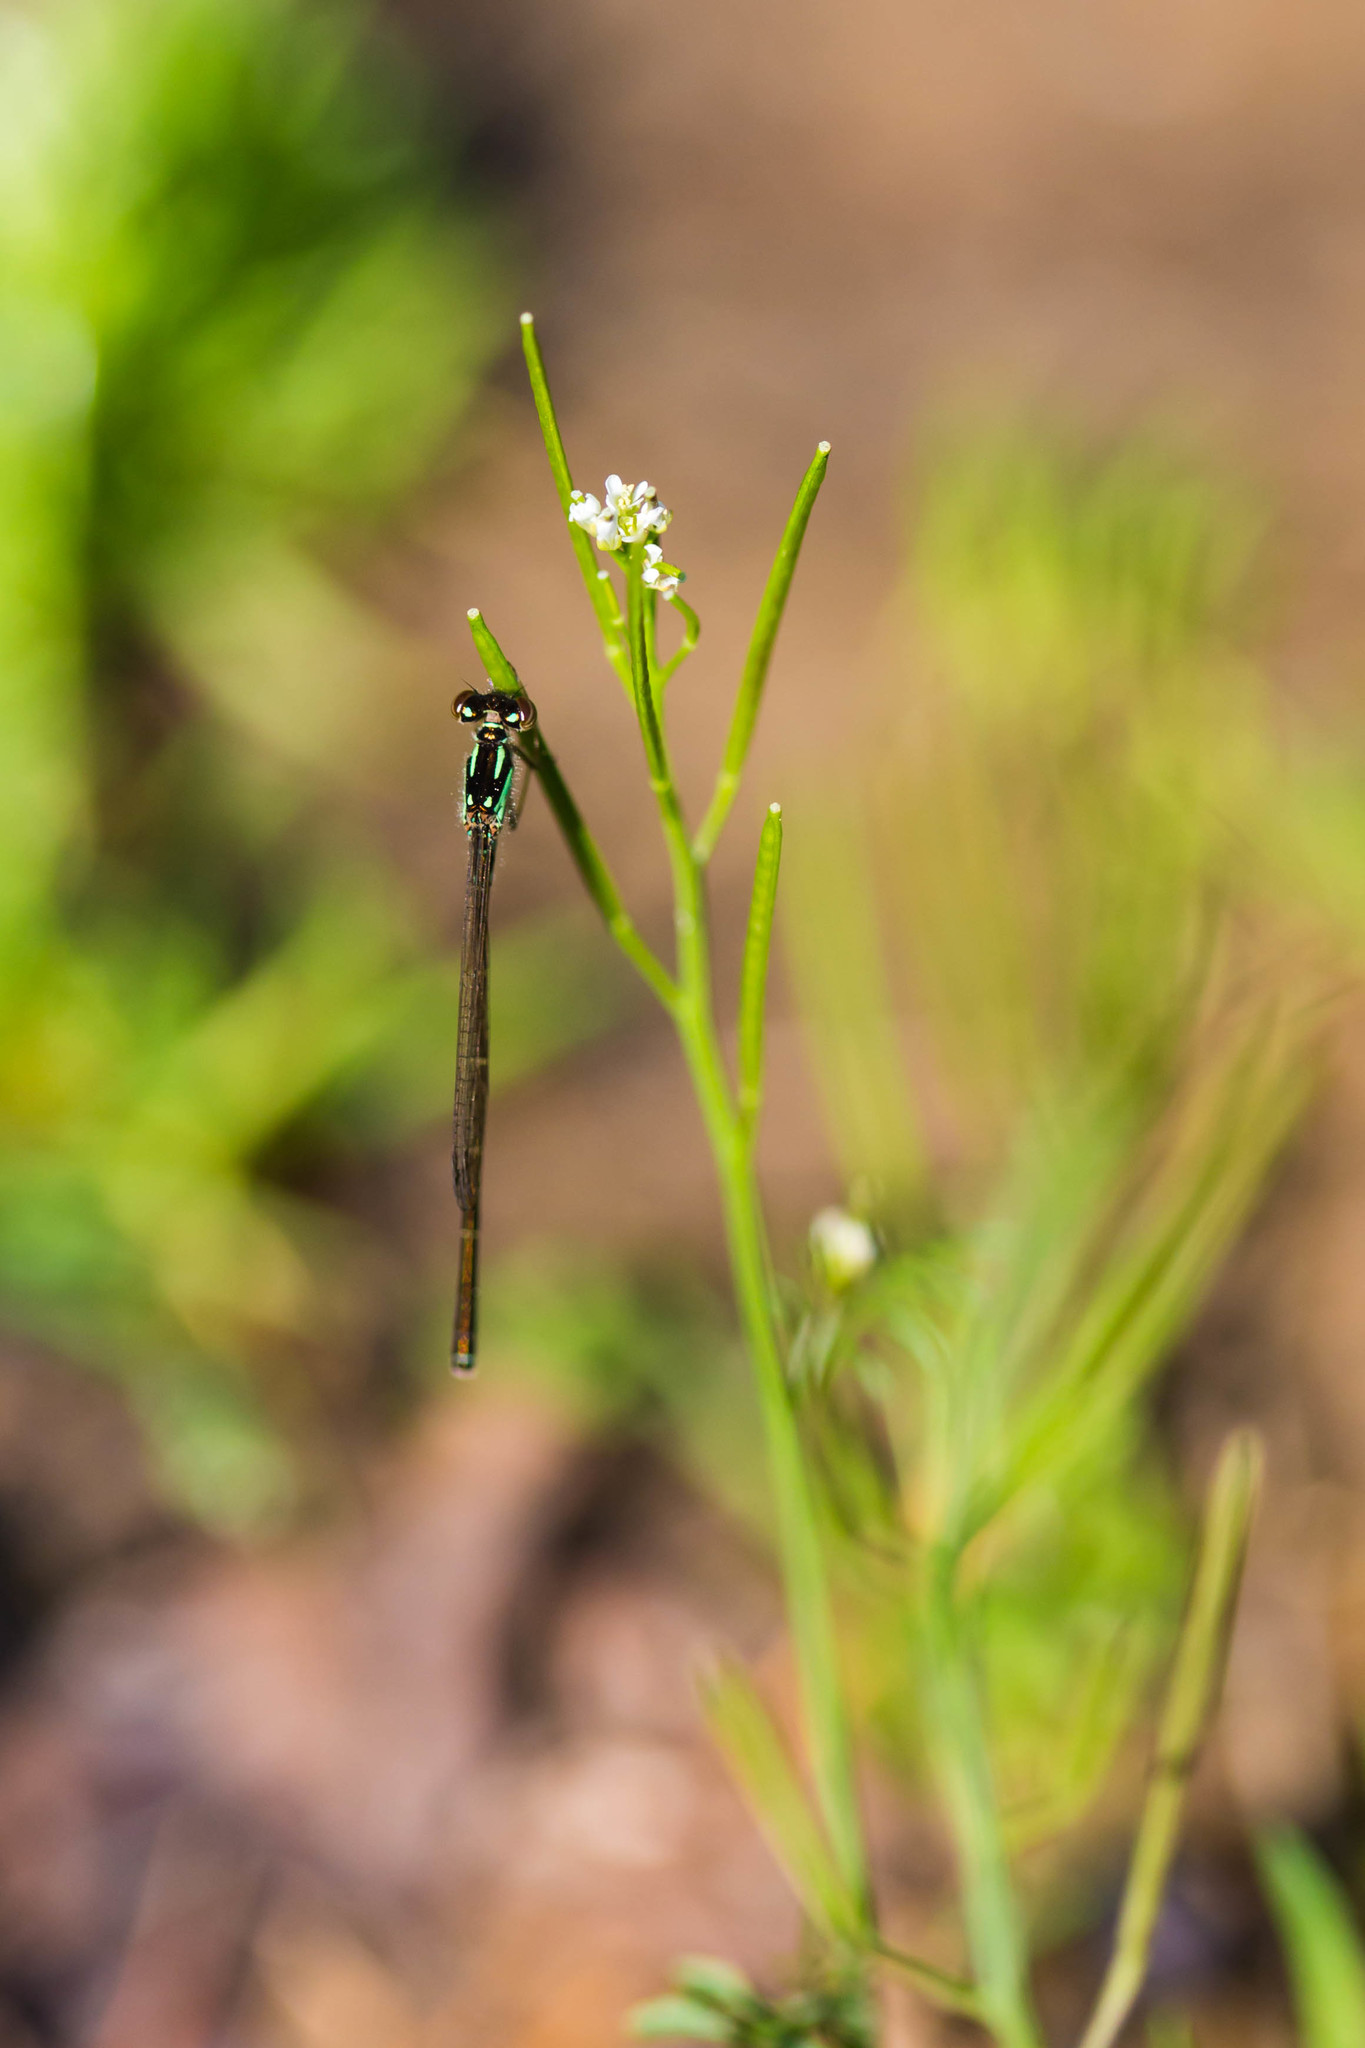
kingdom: Animalia
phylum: Arthropoda
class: Insecta
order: Odonata
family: Coenagrionidae
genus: Ischnura
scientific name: Ischnura posita
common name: Fragile forktail
